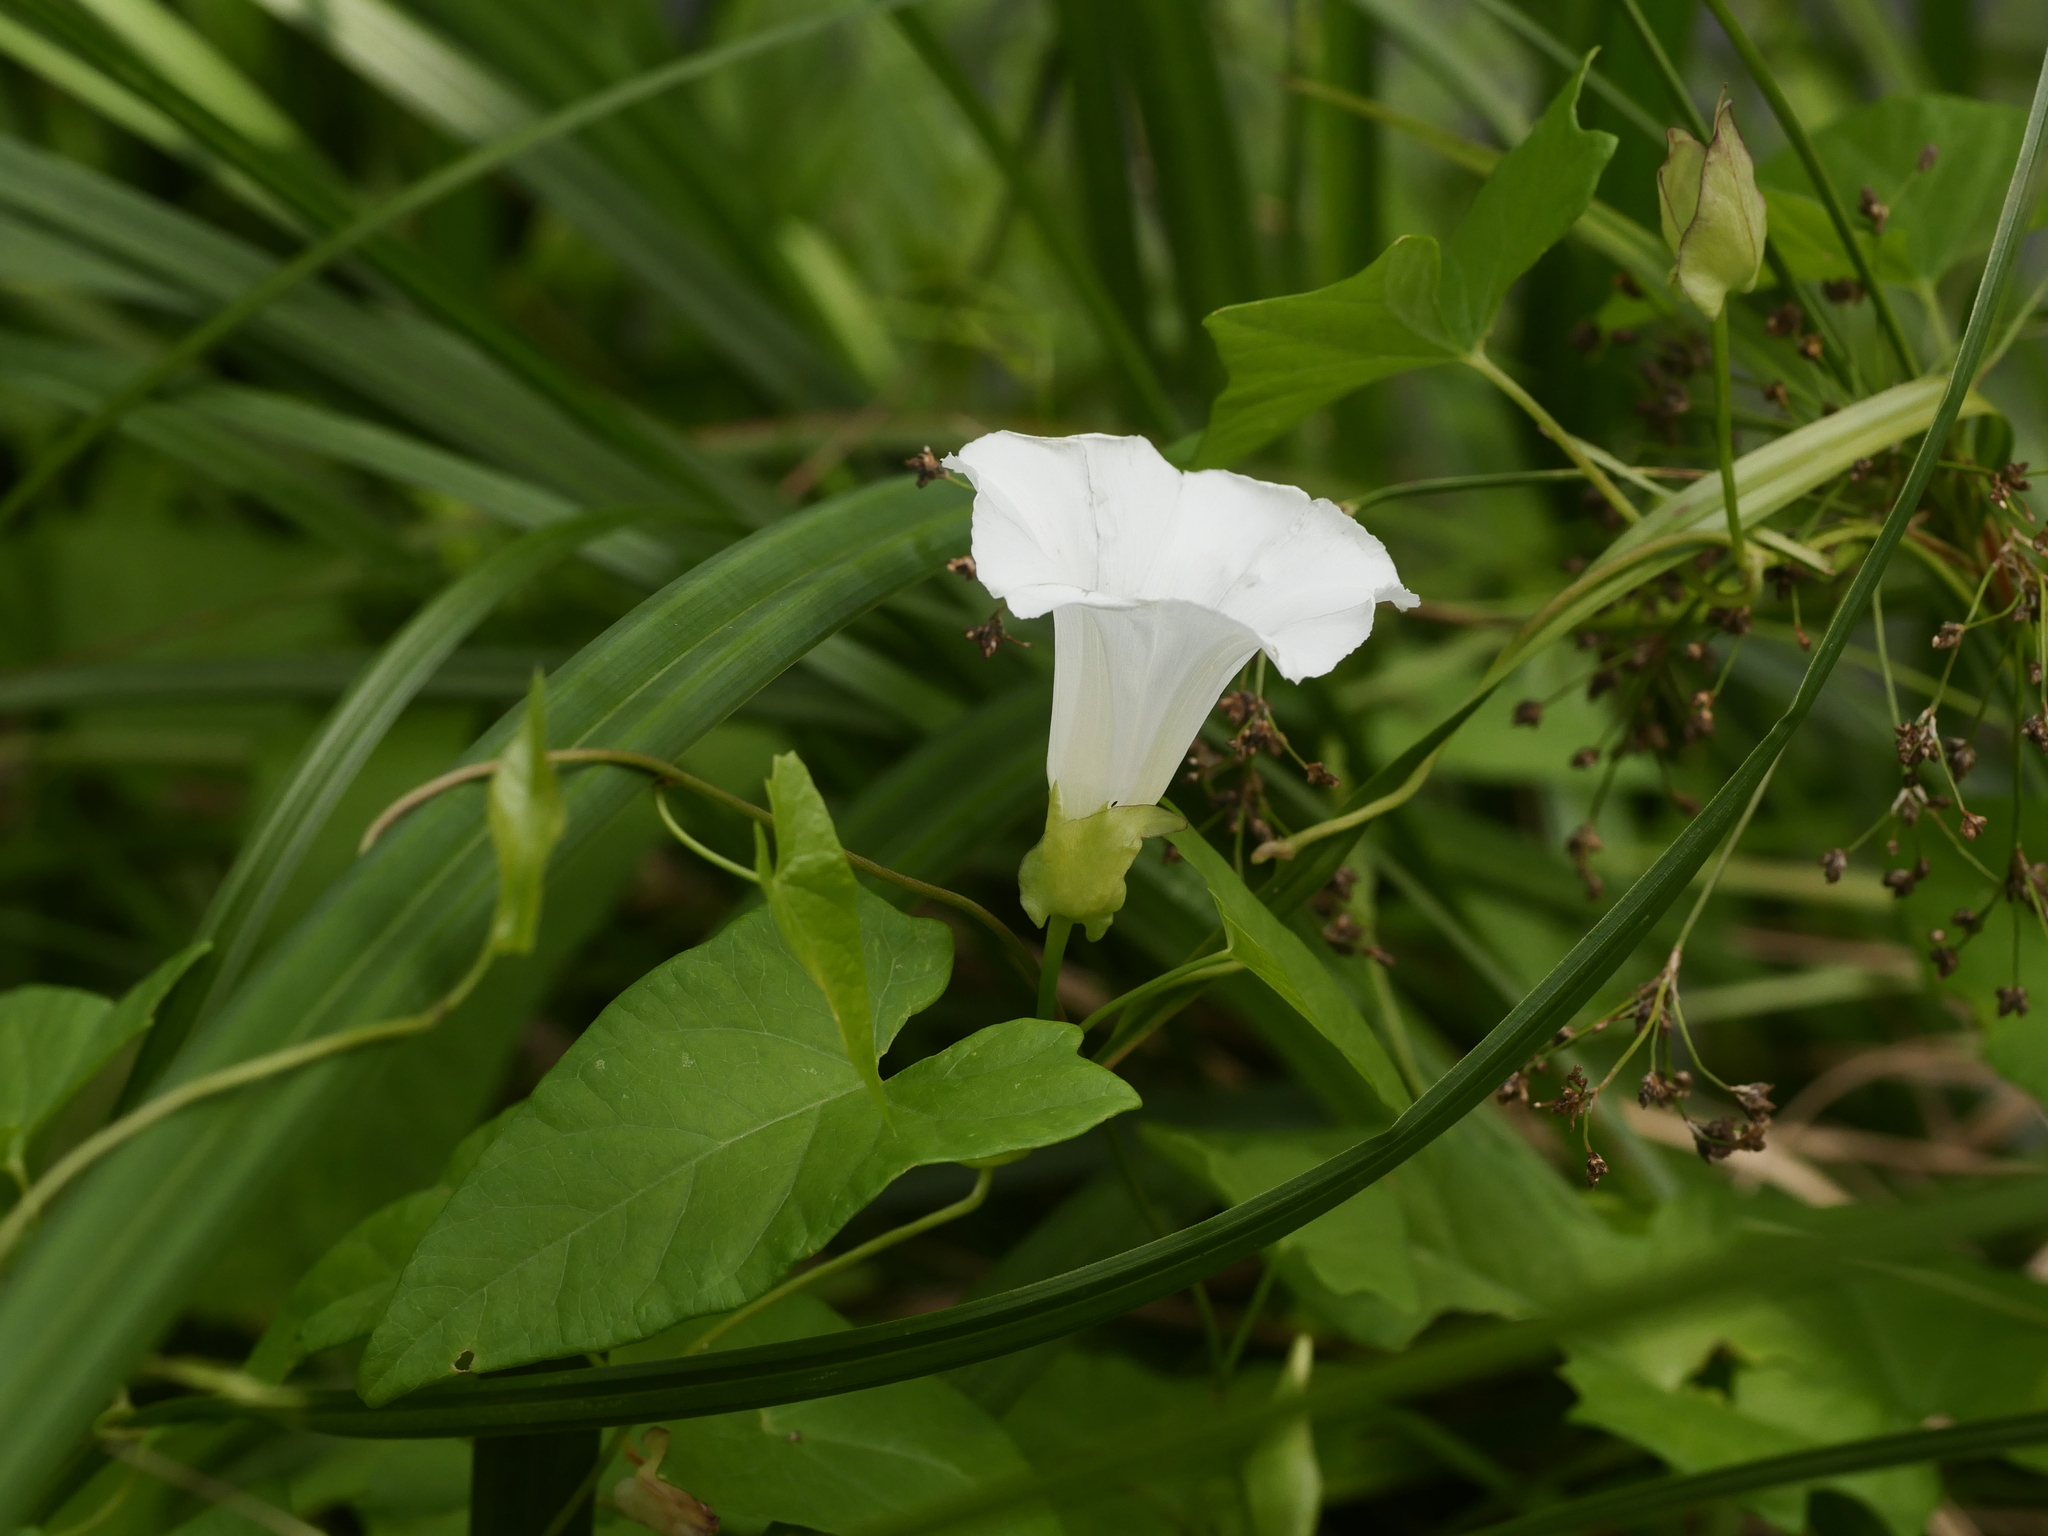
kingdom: Plantae
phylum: Tracheophyta
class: Magnoliopsida
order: Solanales
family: Convolvulaceae
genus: Calystegia
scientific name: Calystegia sepium
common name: Hedge bindweed
